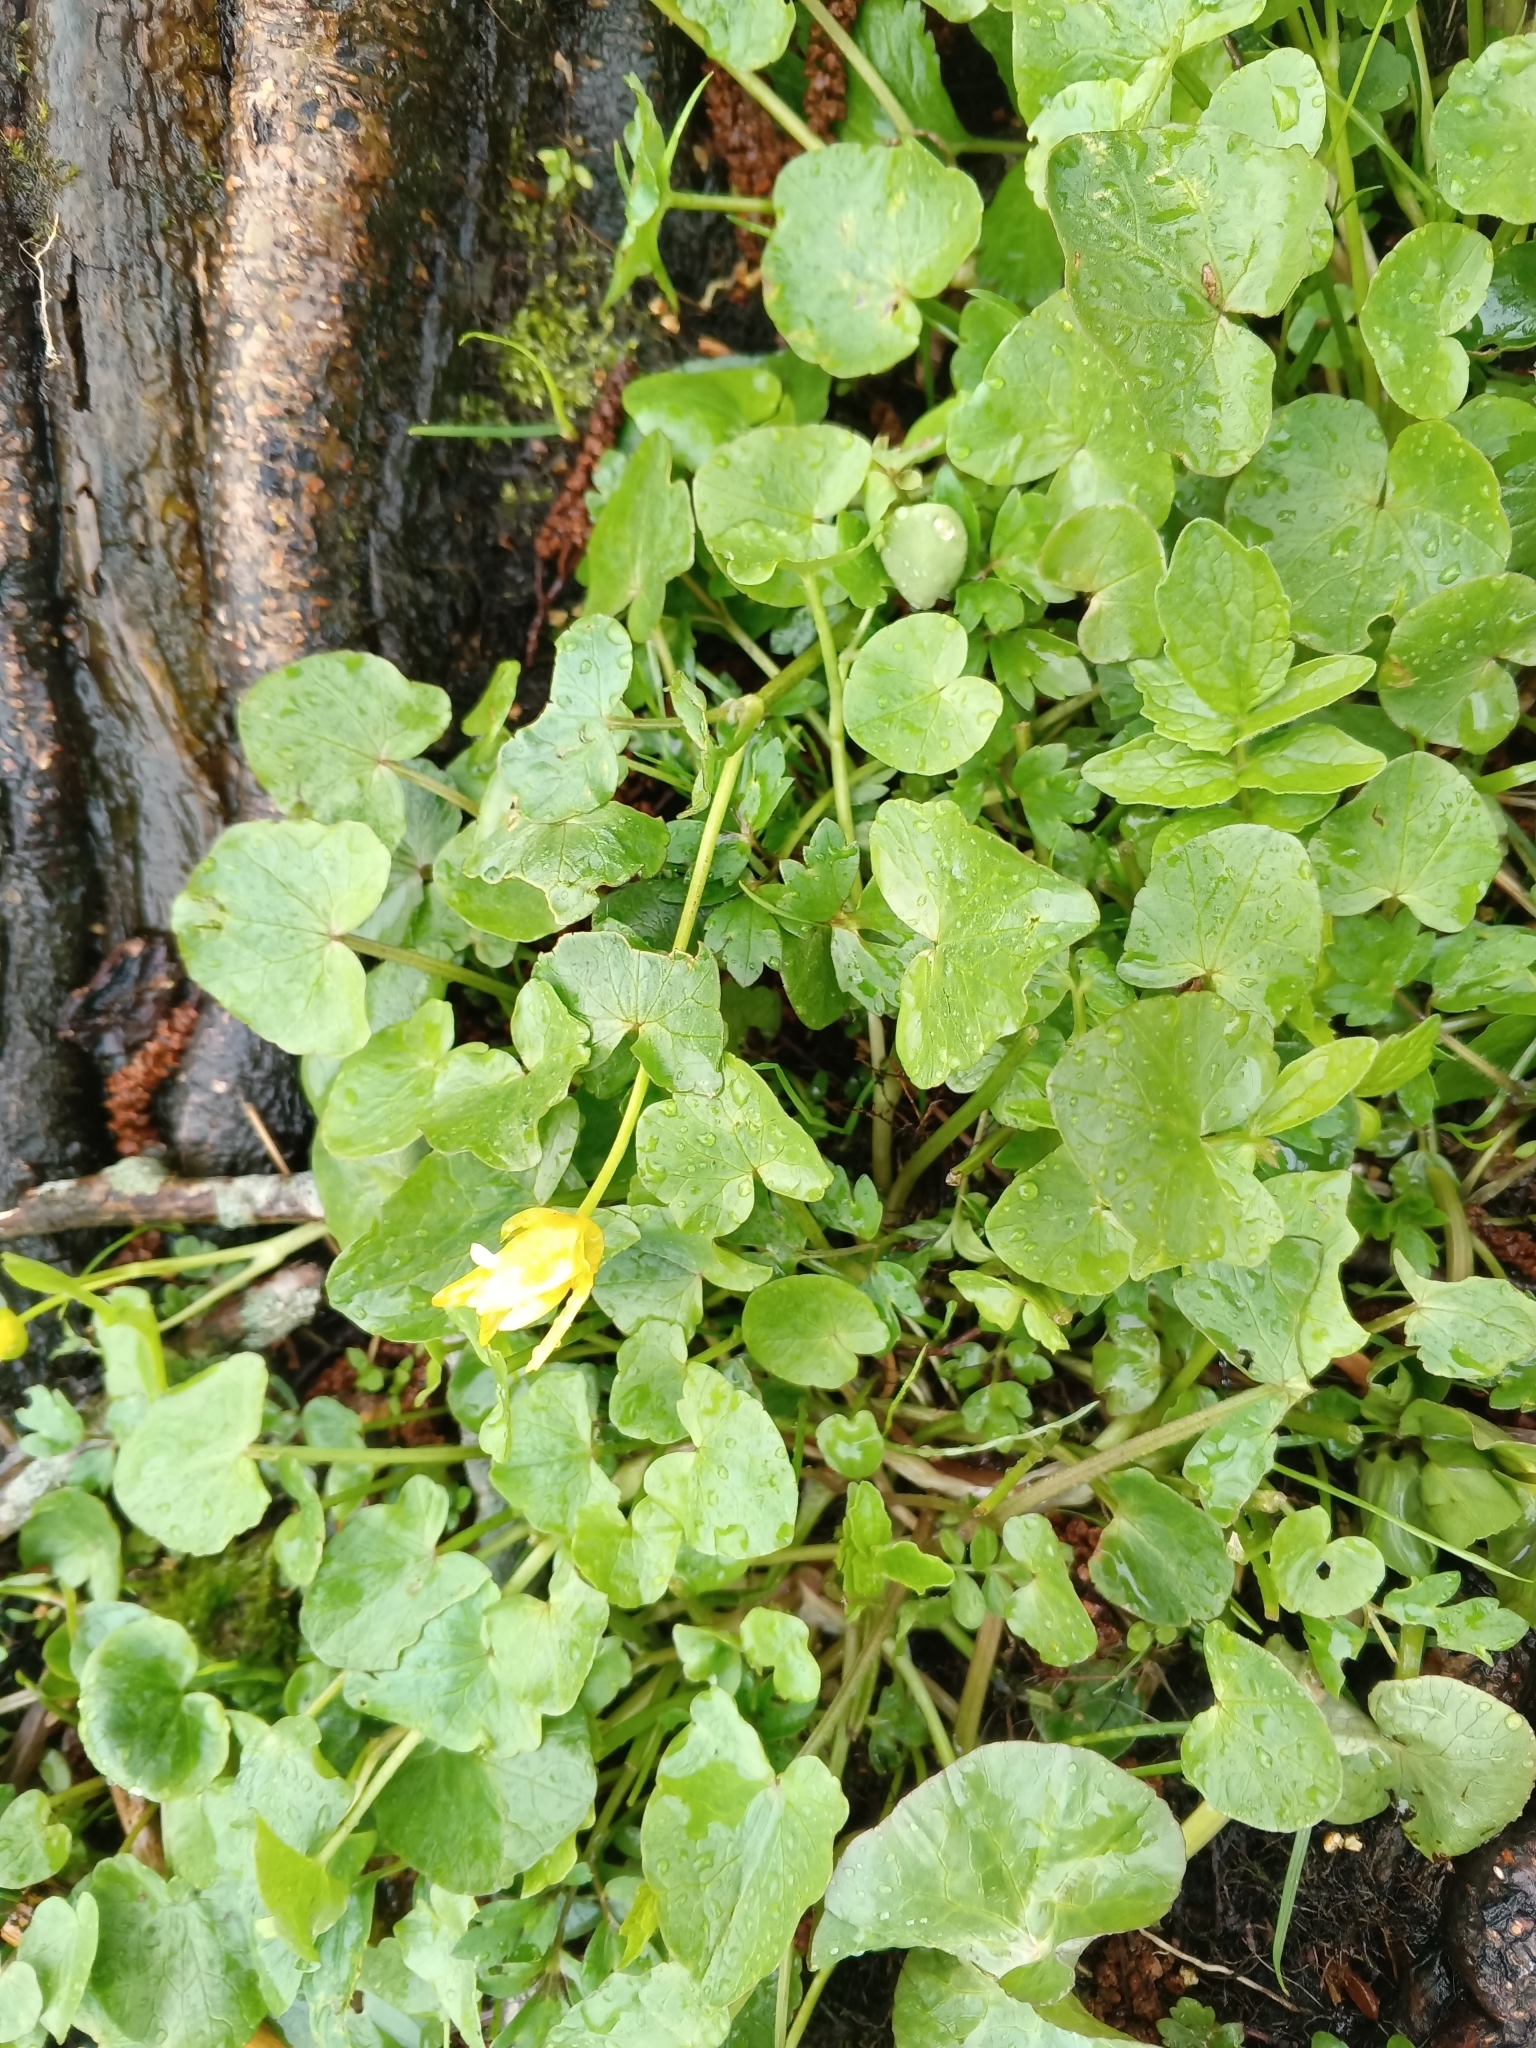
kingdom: Plantae
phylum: Tracheophyta
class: Magnoliopsida
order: Ranunculales
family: Ranunculaceae
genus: Ficaria
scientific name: Ficaria verna
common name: Lesser celandine
